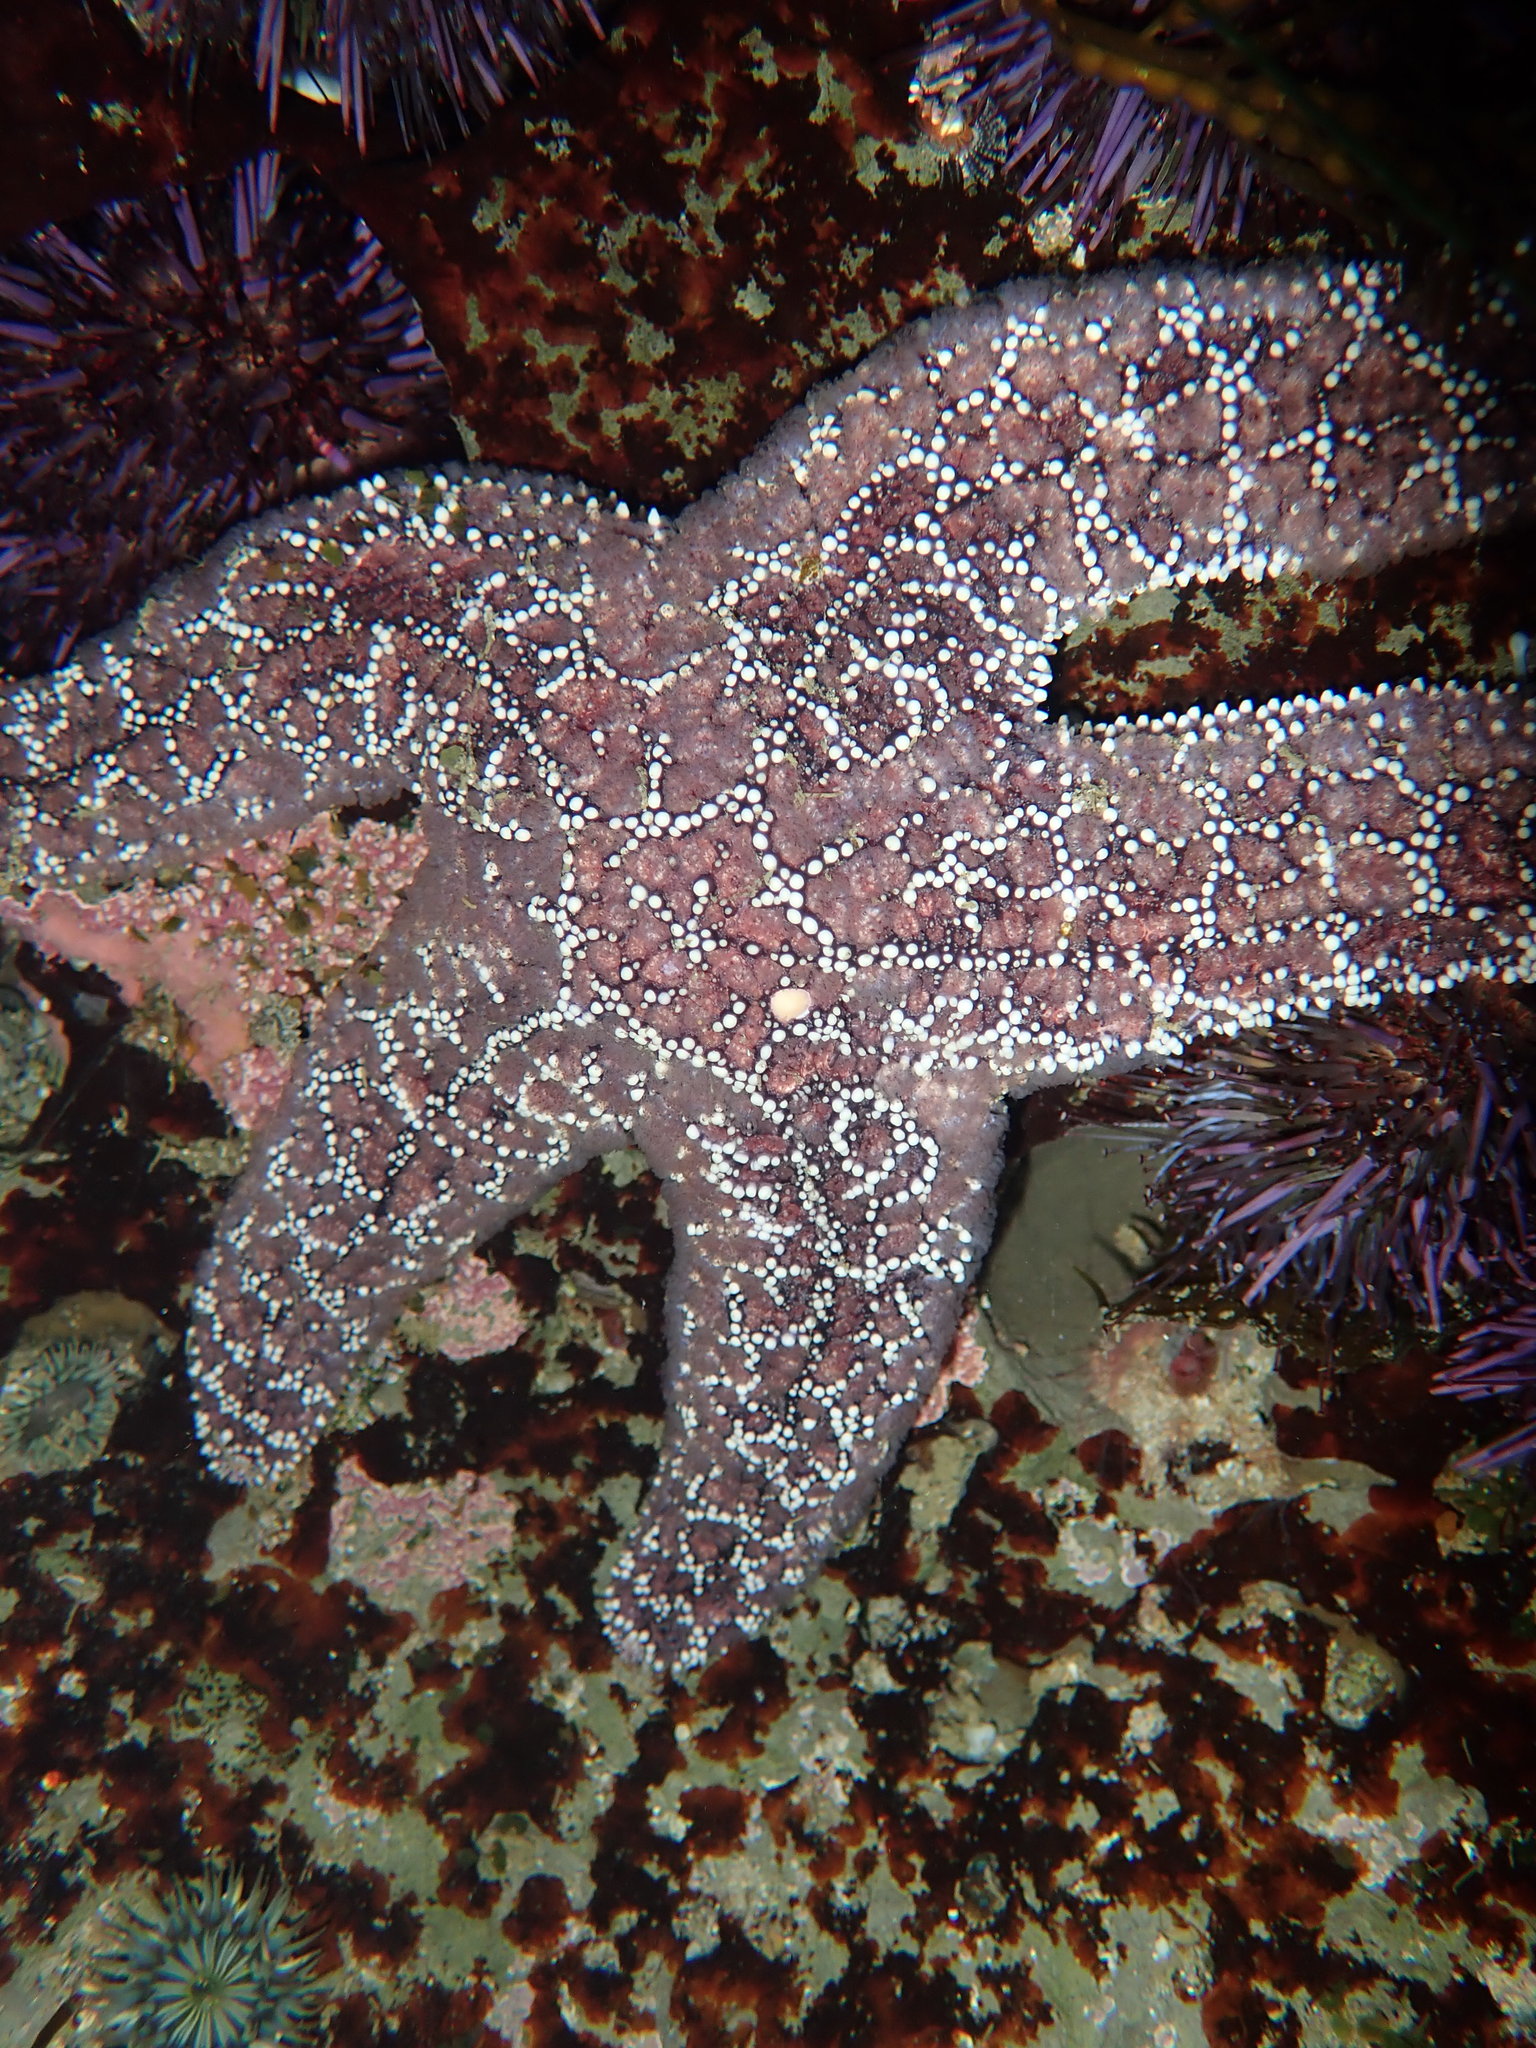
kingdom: Animalia
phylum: Echinodermata
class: Asteroidea
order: Forcipulatida
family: Asteriidae
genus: Pisaster
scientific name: Pisaster ochraceus
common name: Ochre stars
